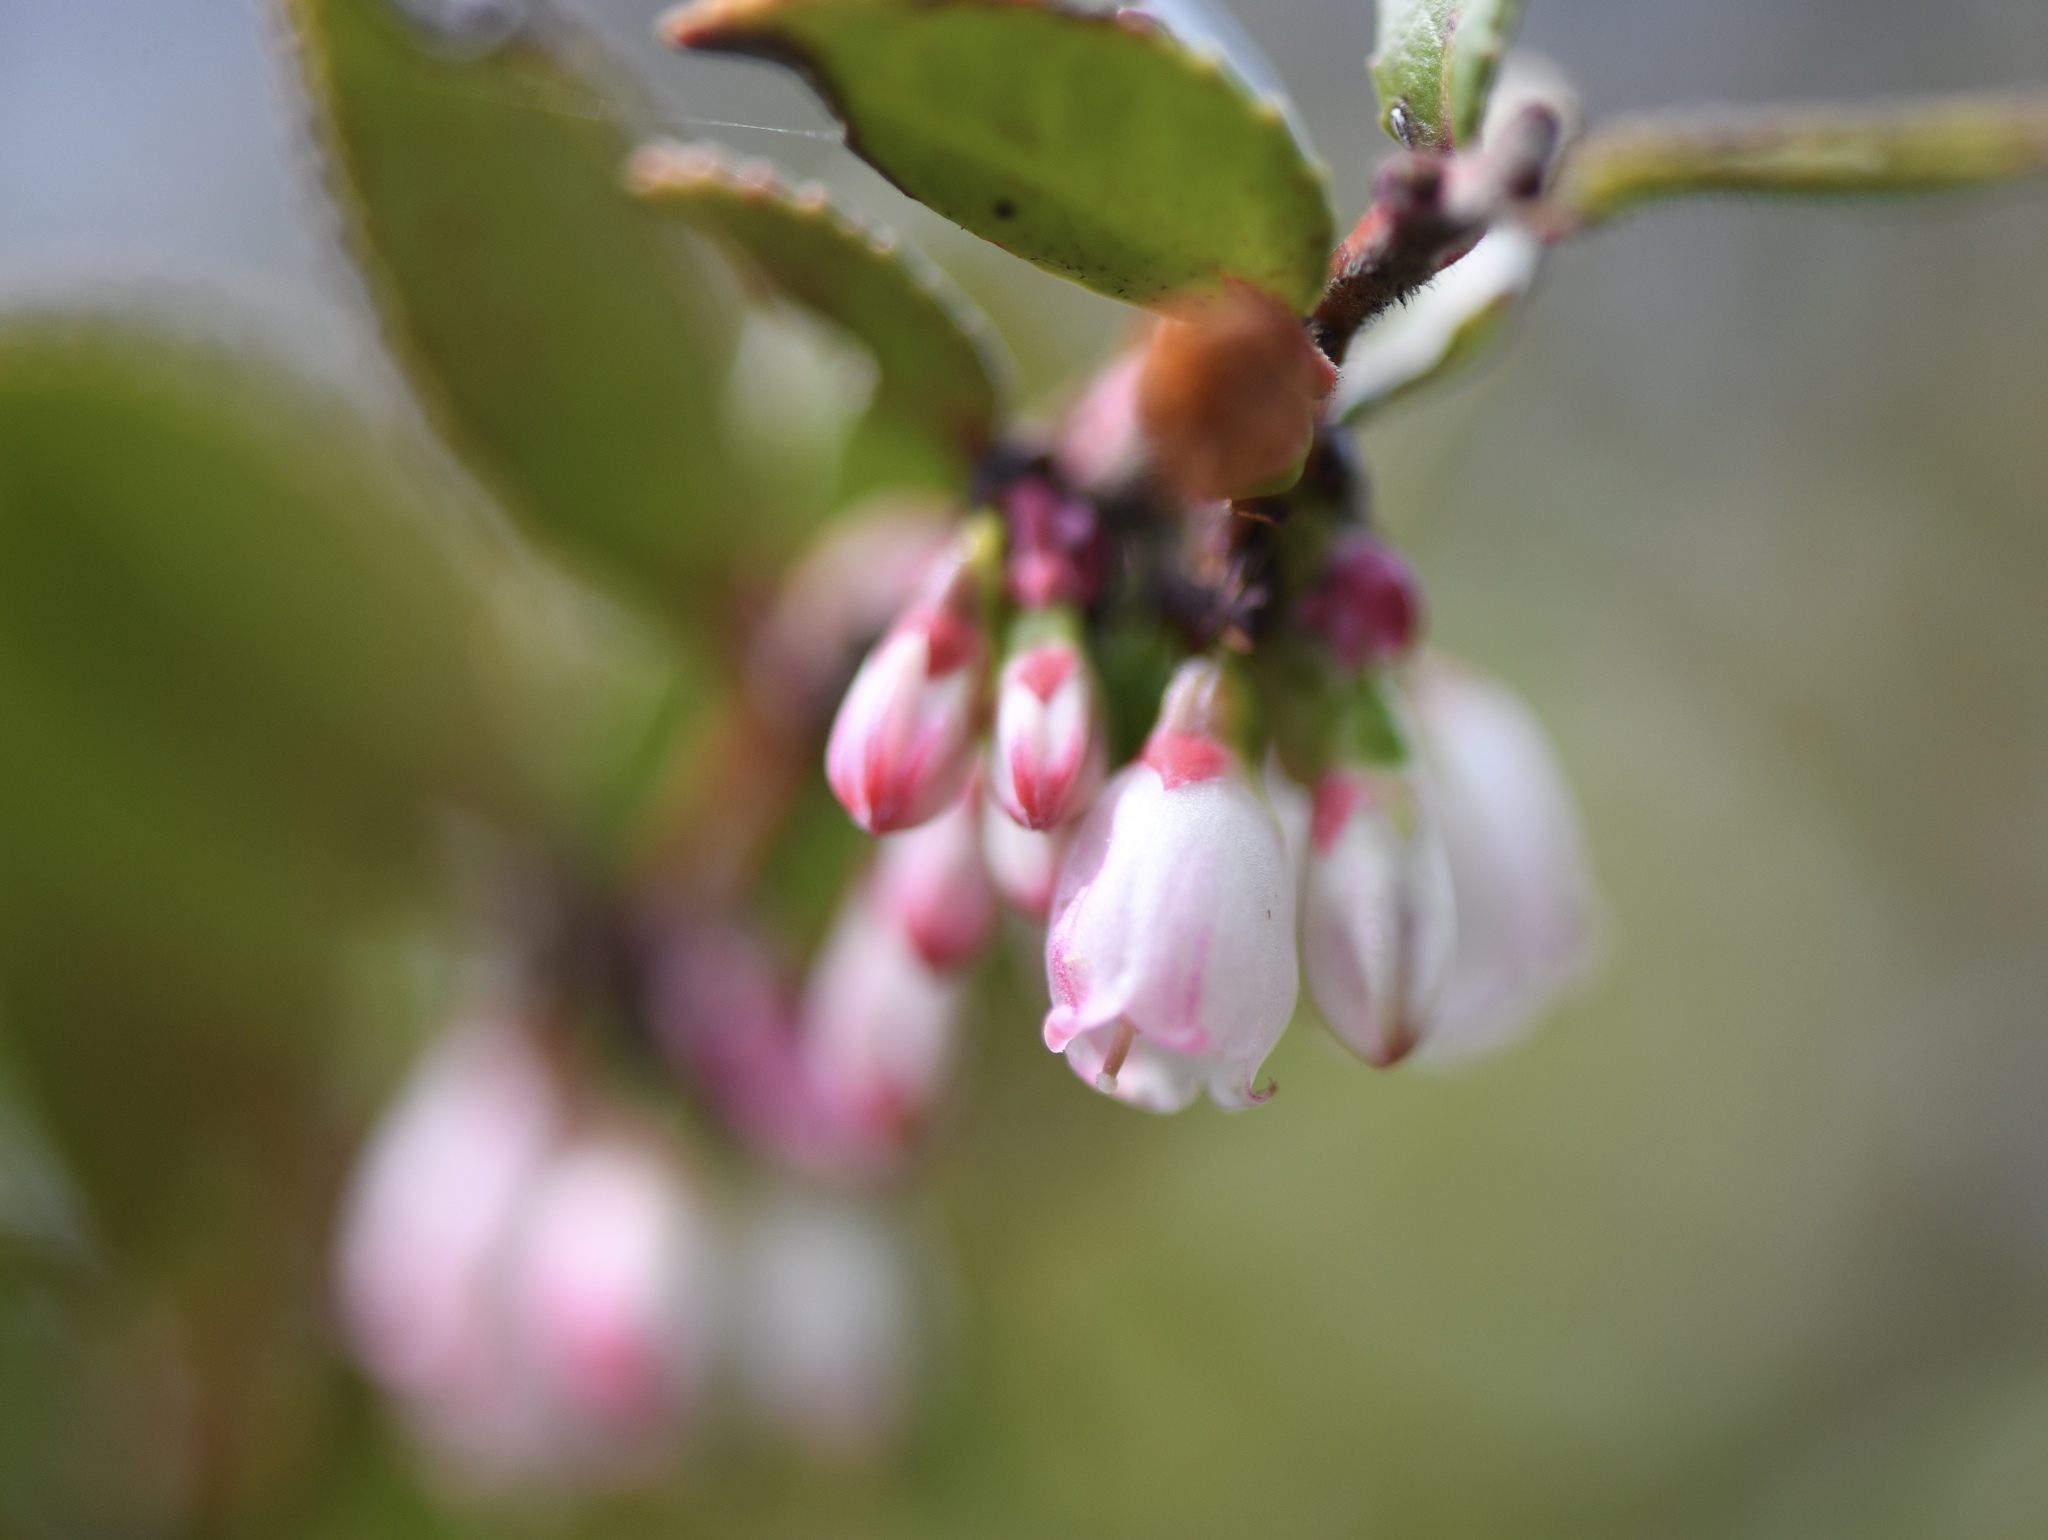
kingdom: Plantae
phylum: Tracheophyta
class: Magnoliopsida
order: Ericales
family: Ericaceae
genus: Vaccinium
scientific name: Vaccinium ovatum
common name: California-huckleberry
